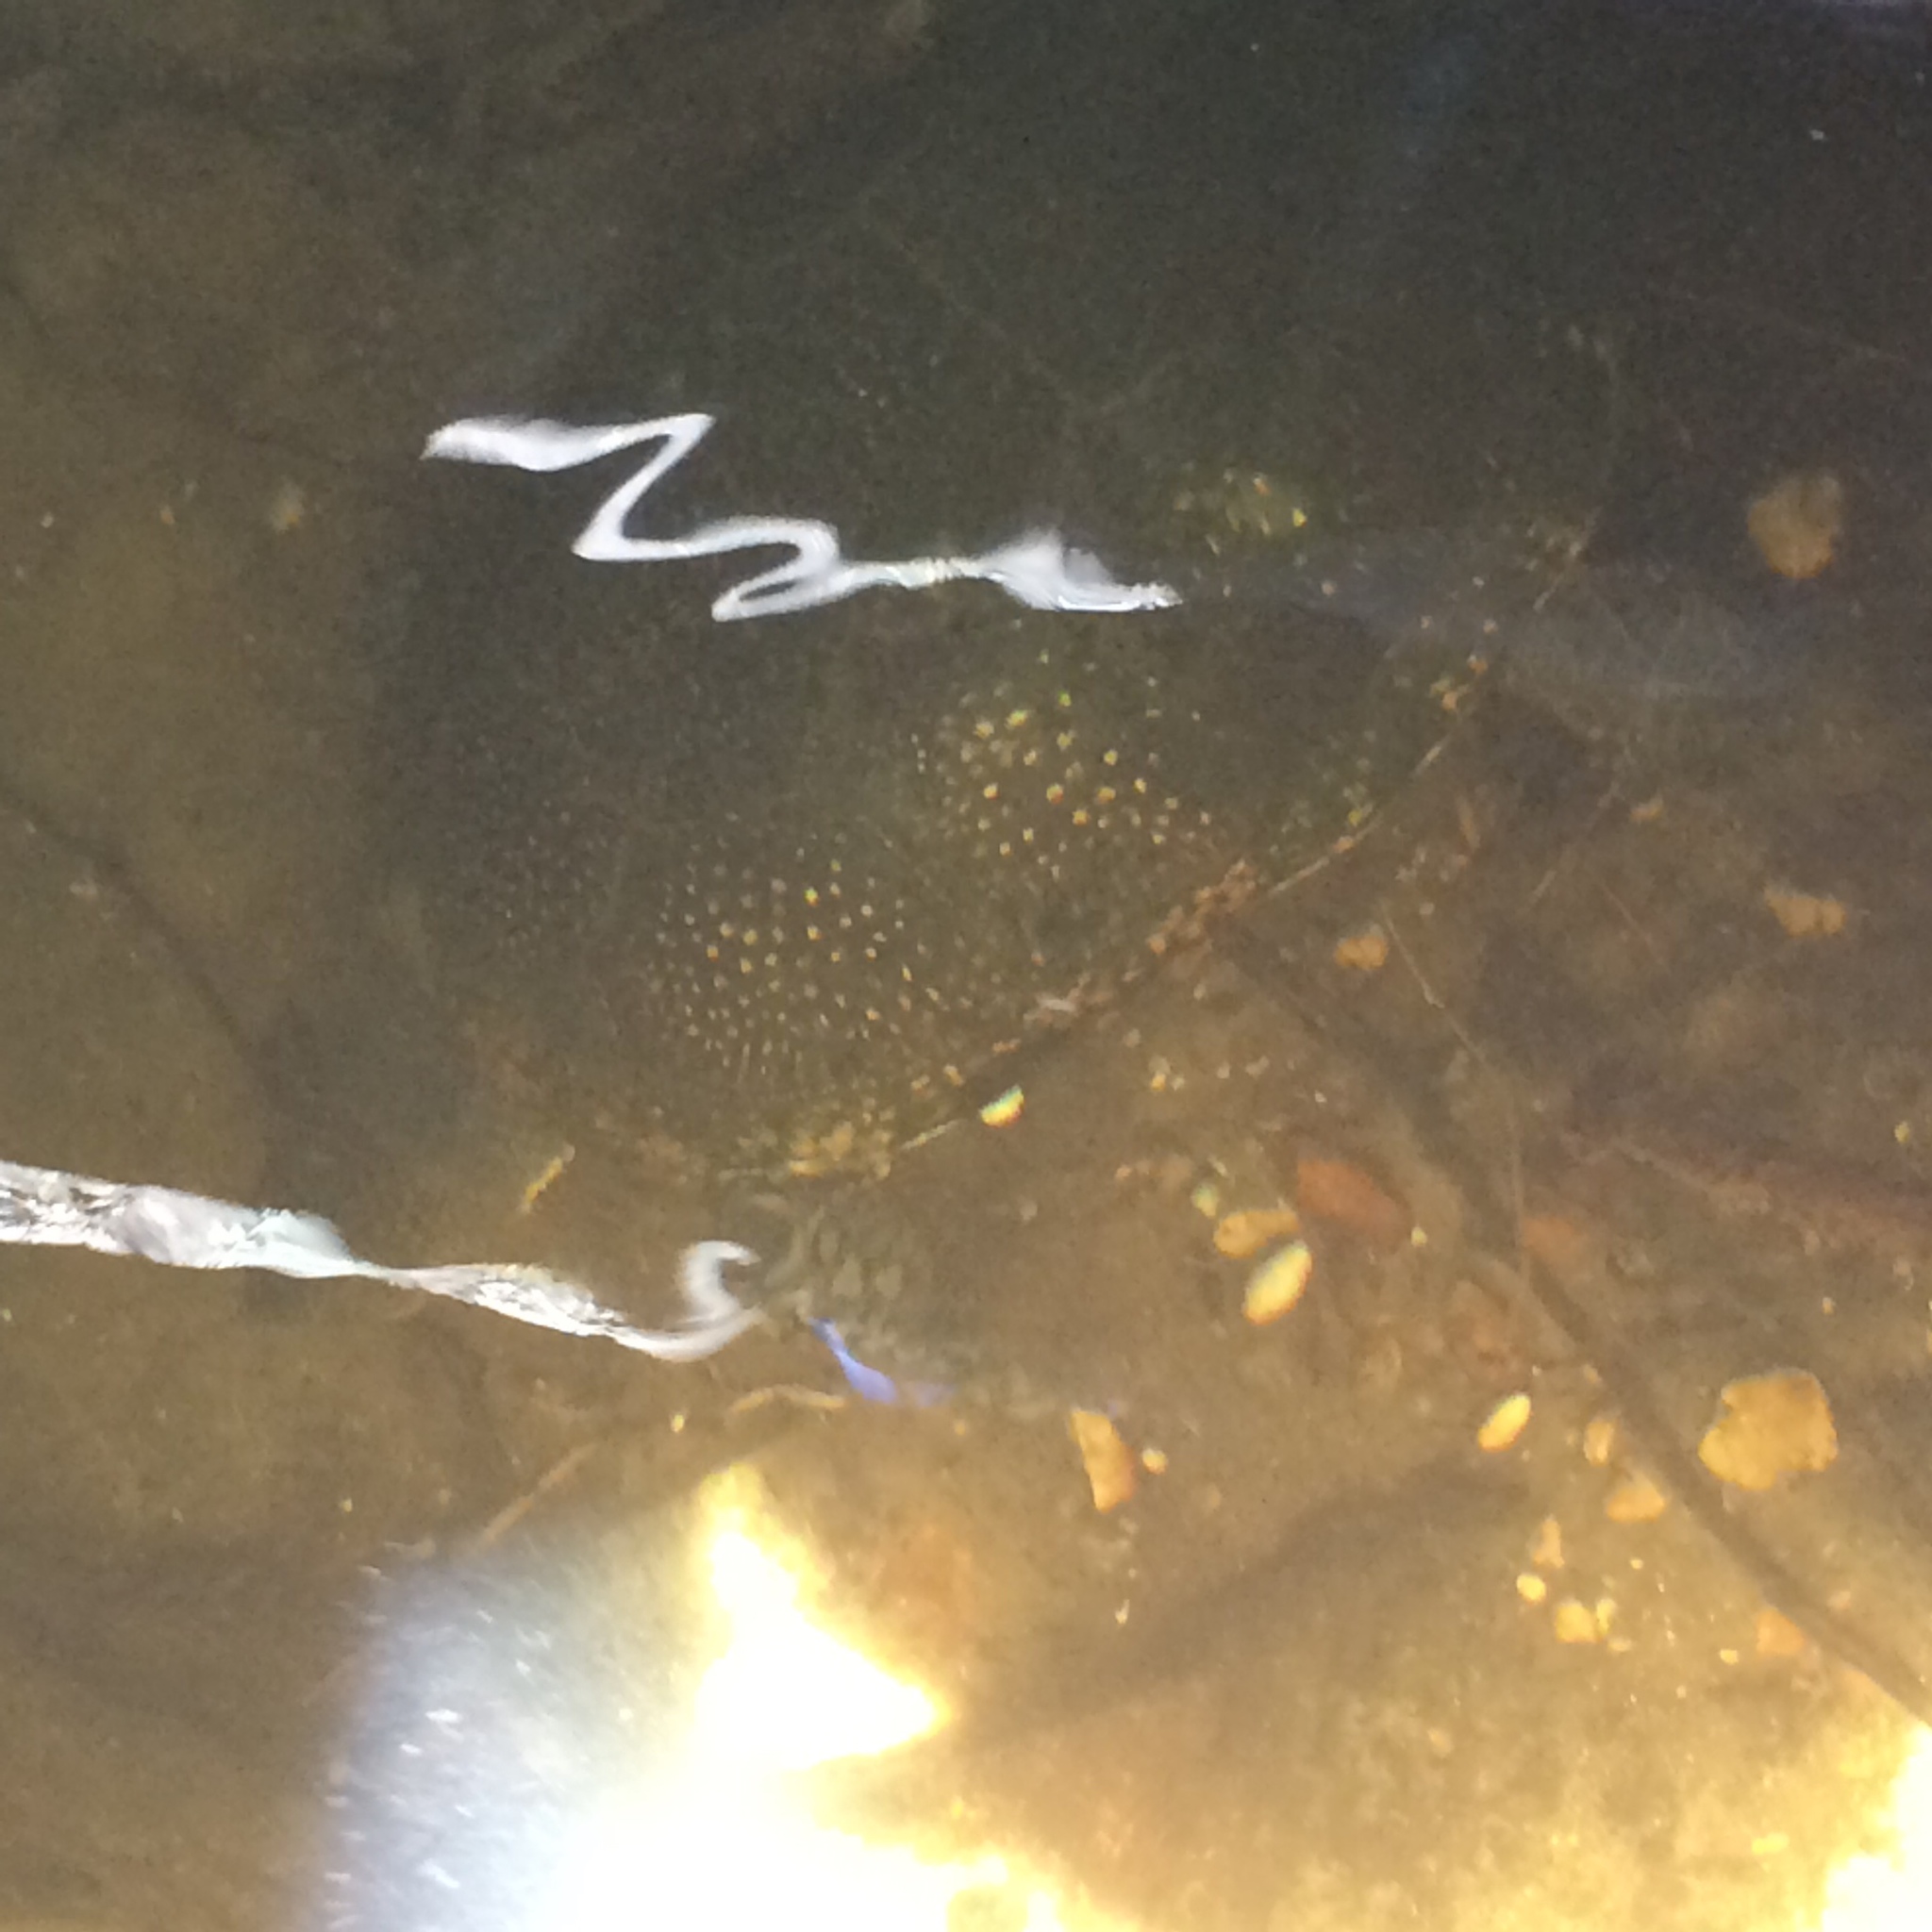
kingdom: Animalia
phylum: Chordata
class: Testudines
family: Emydidae
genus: Emys
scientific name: Emys blandingii
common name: Blanding's turtle
